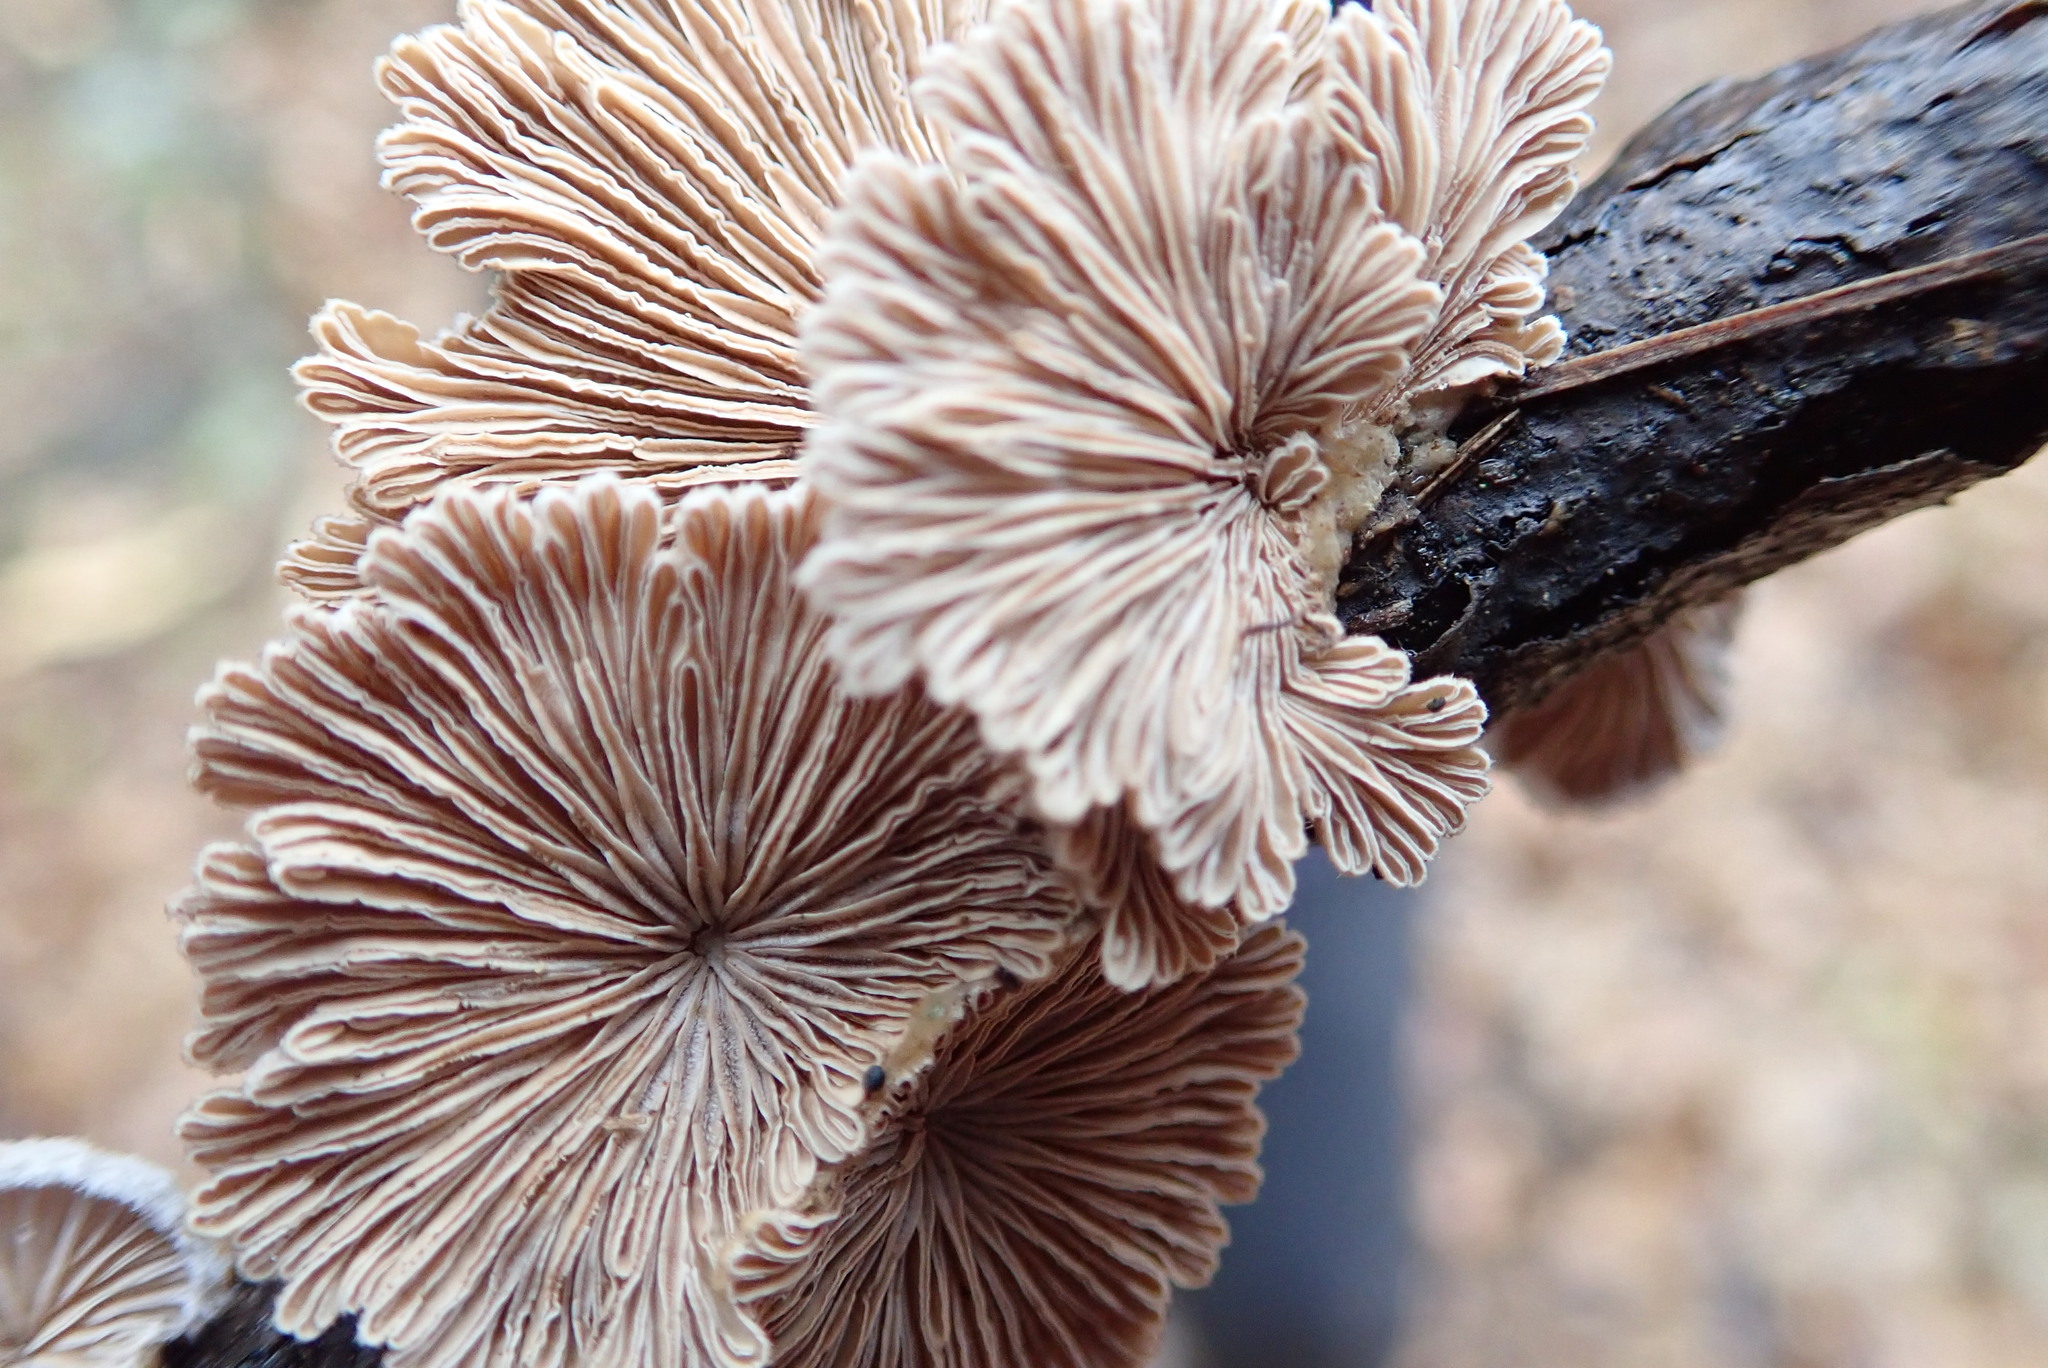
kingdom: Fungi
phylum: Basidiomycota
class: Agaricomycetes
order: Agaricales
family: Schizophyllaceae
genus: Schizophyllum
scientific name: Schizophyllum commune
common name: Common porecrust
